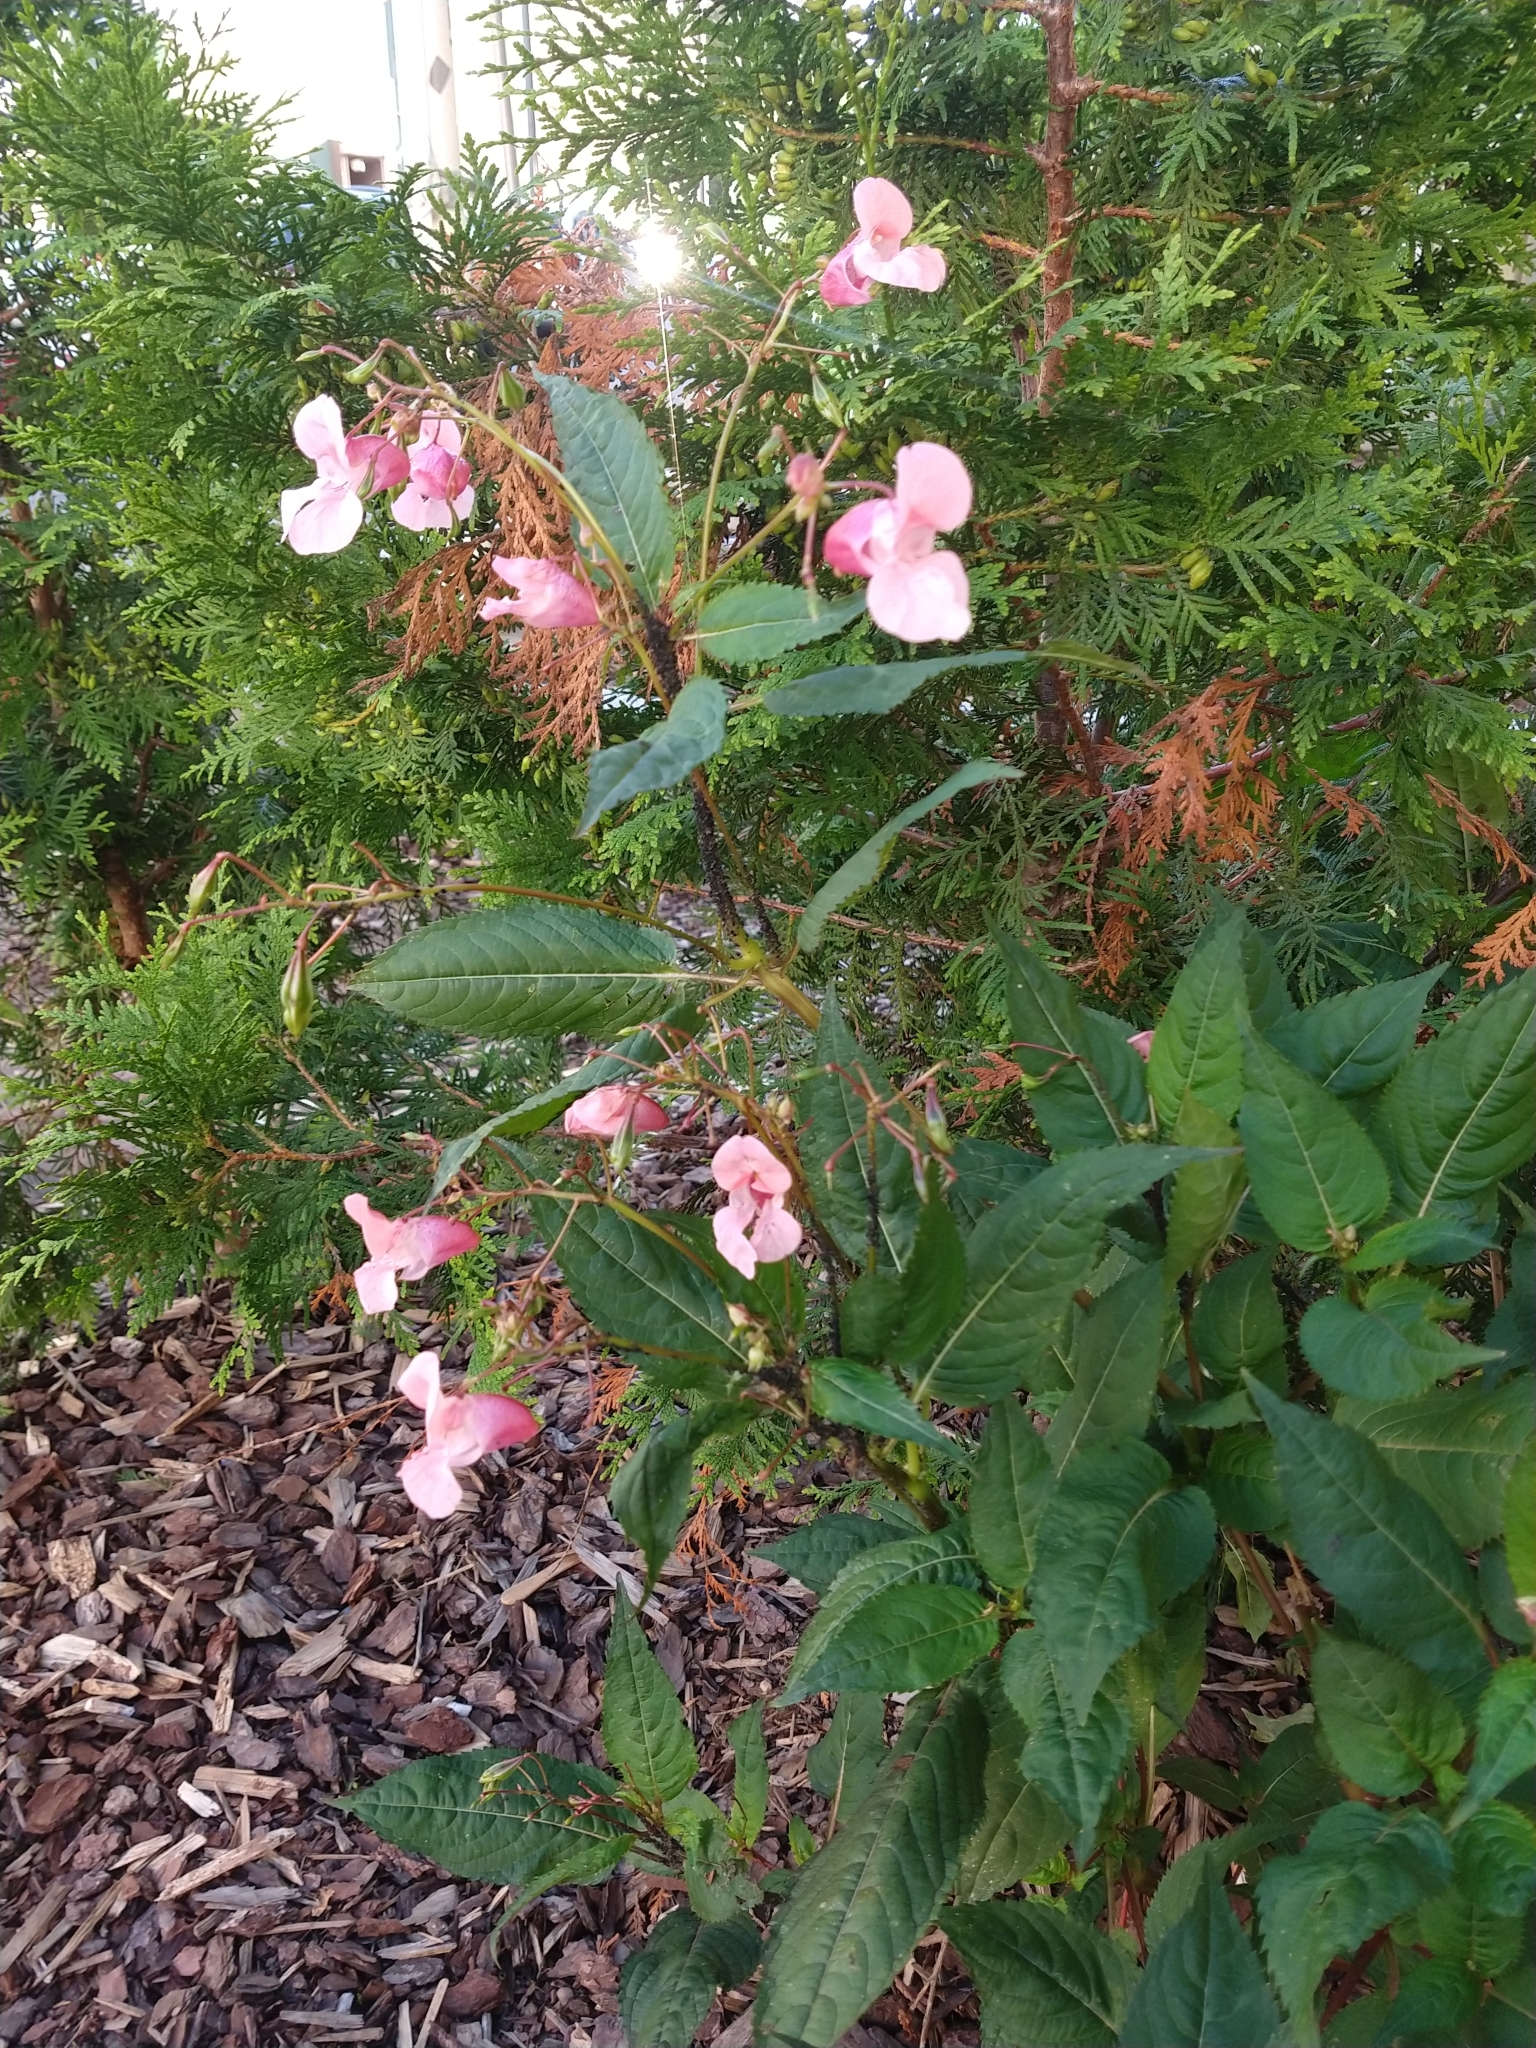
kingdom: Plantae
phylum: Tracheophyta
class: Magnoliopsida
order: Ericales
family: Balsaminaceae
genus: Impatiens
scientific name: Impatiens glandulifera
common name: Himalayan balsam
